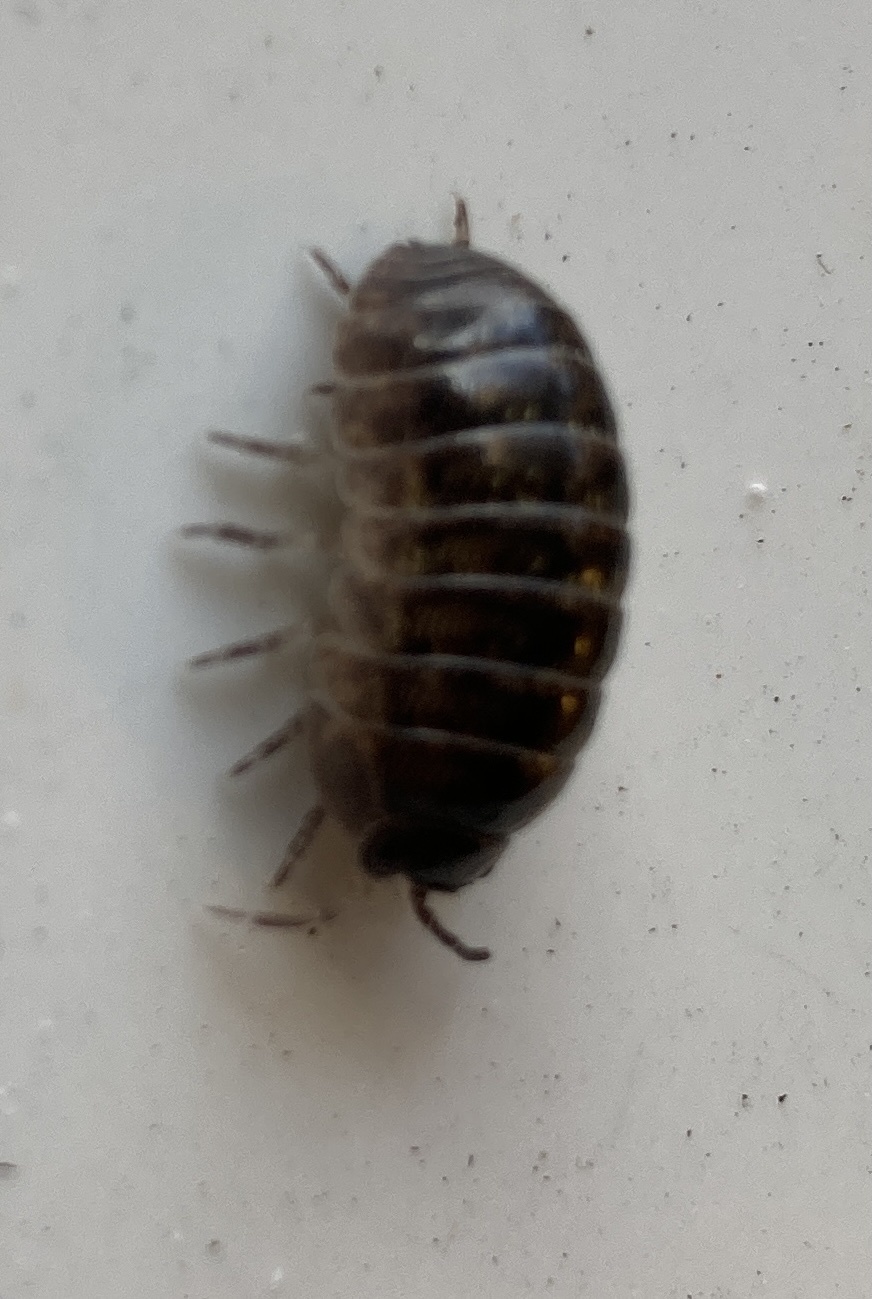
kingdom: Animalia
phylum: Arthropoda
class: Malacostraca
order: Isopoda
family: Armadillidiidae
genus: Armadillidium
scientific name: Armadillidium vulgare
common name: Common pill woodlouse
